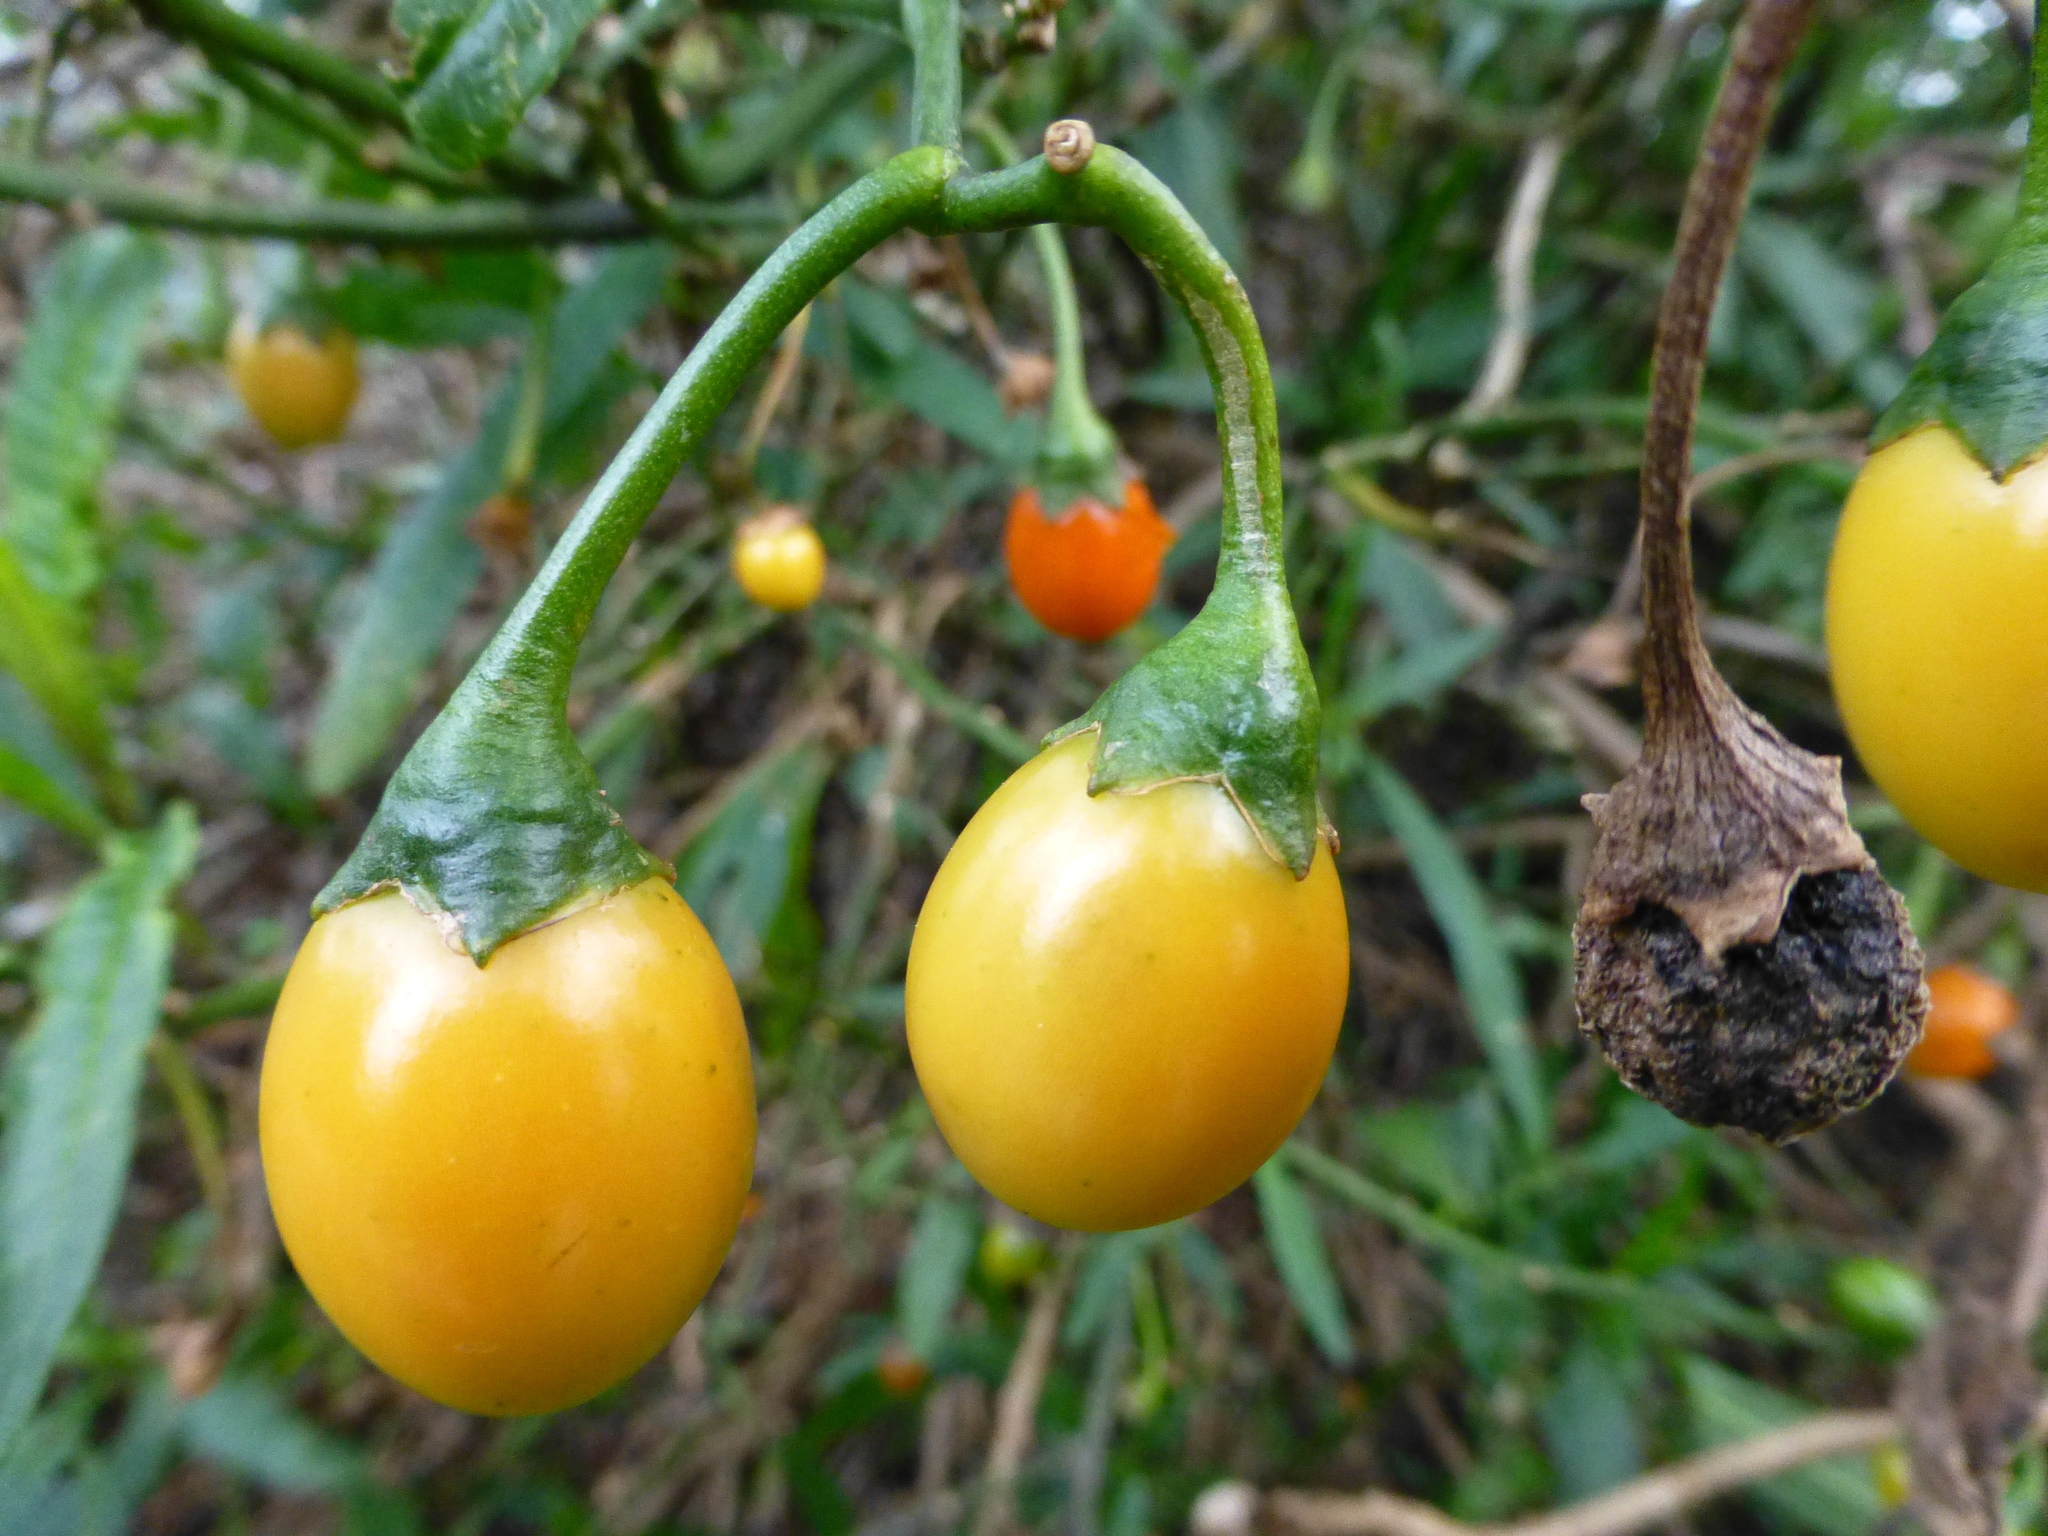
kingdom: Plantae
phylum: Tracheophyta
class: Magnoliopsida
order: Solanales
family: Solanaceae
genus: Solanum
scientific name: Solanum laciniatum
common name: Kangaroo-apple
